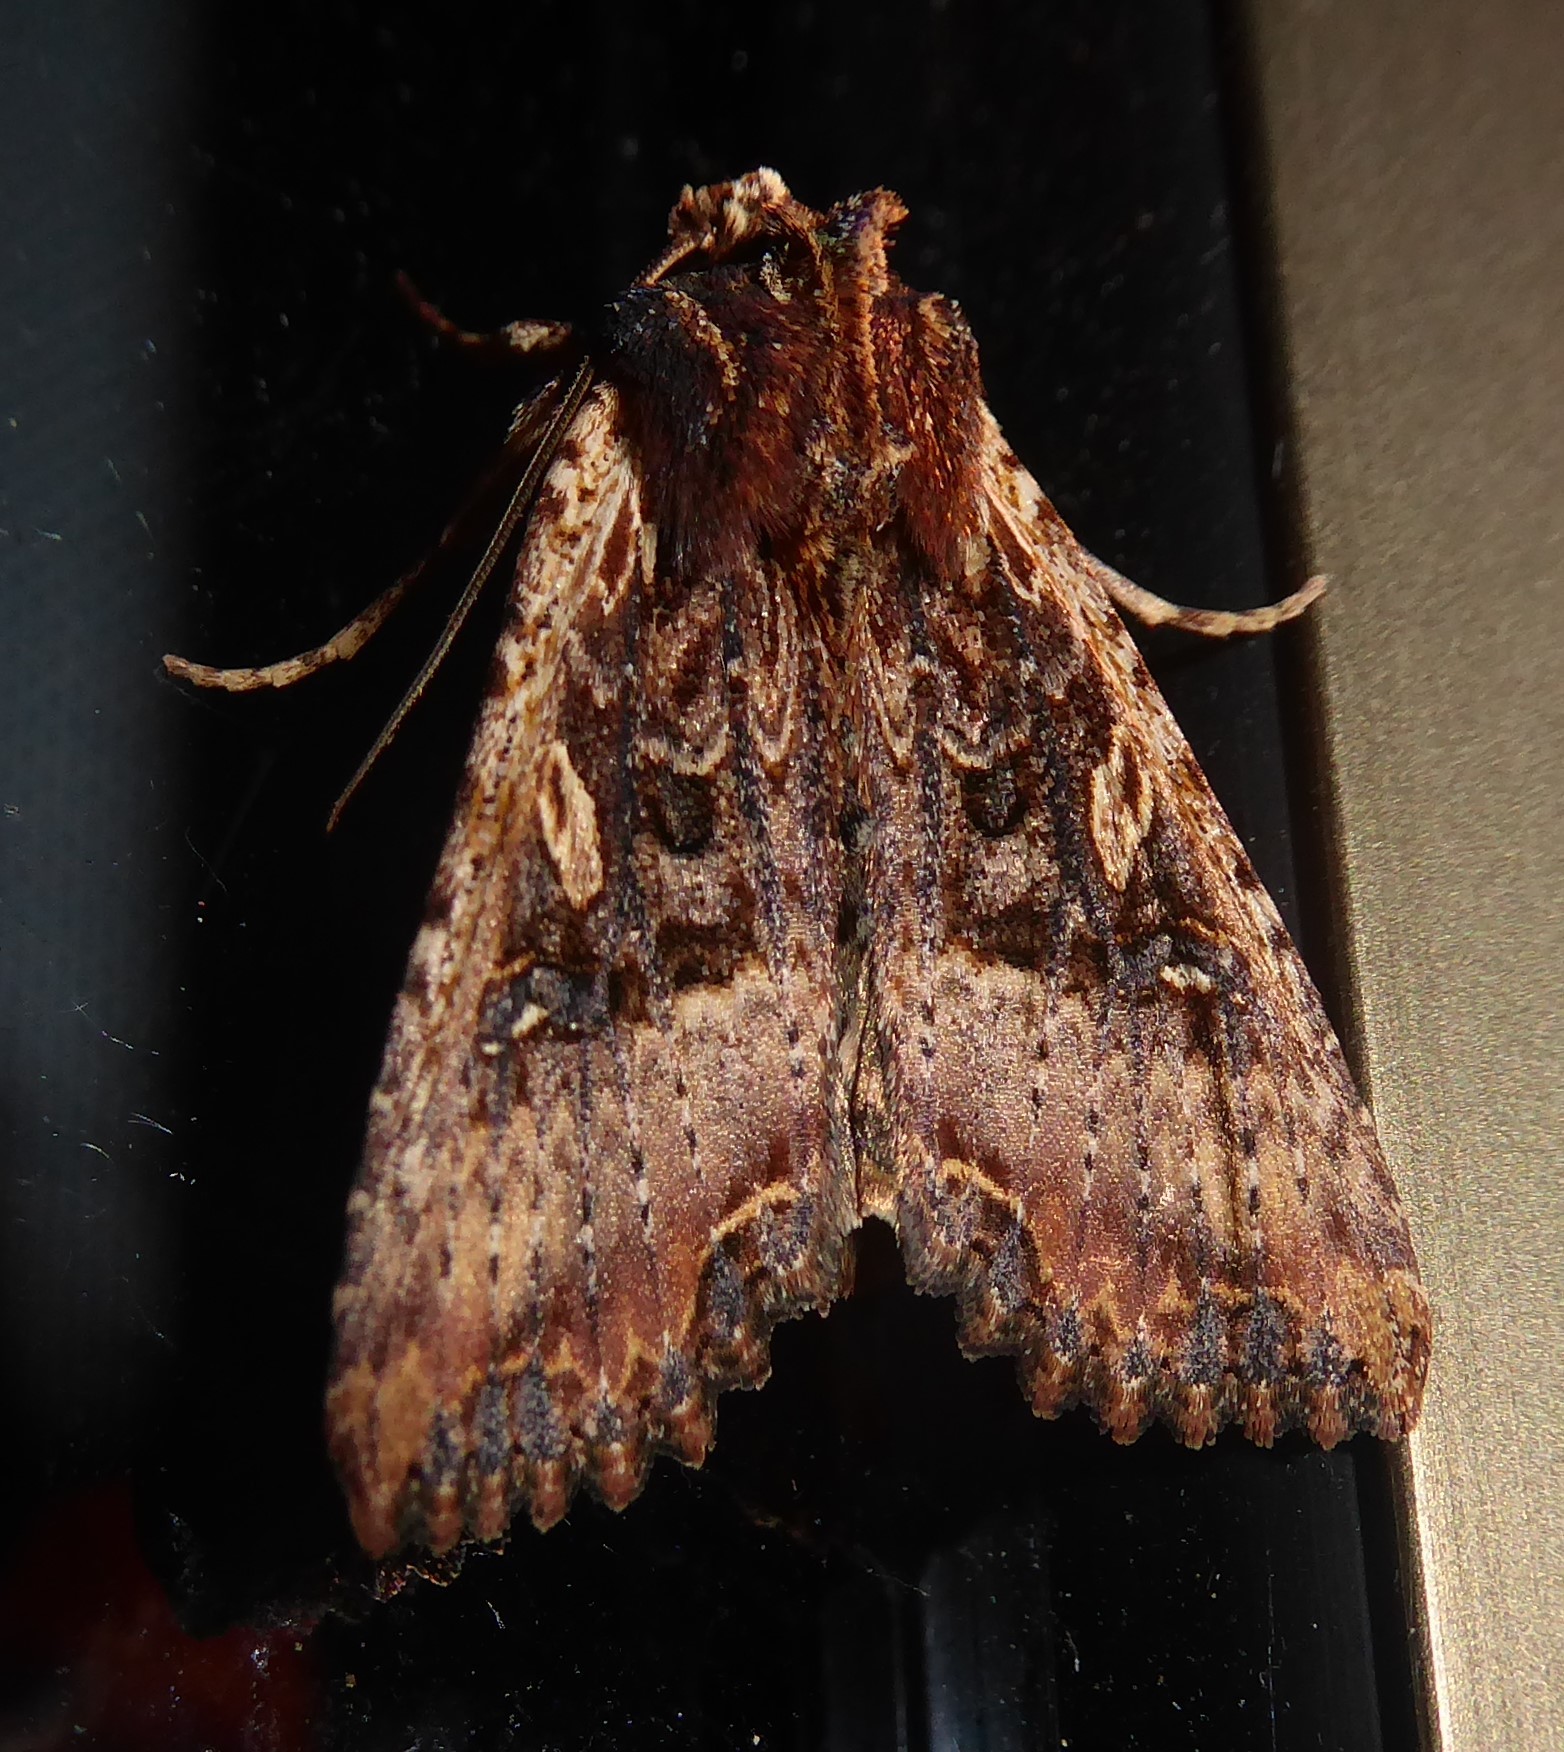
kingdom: Animalia
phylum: Arthropoda
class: Insecta
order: Lepidoptera
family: Noctuidae
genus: Meterana
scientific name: Meterana stipata
